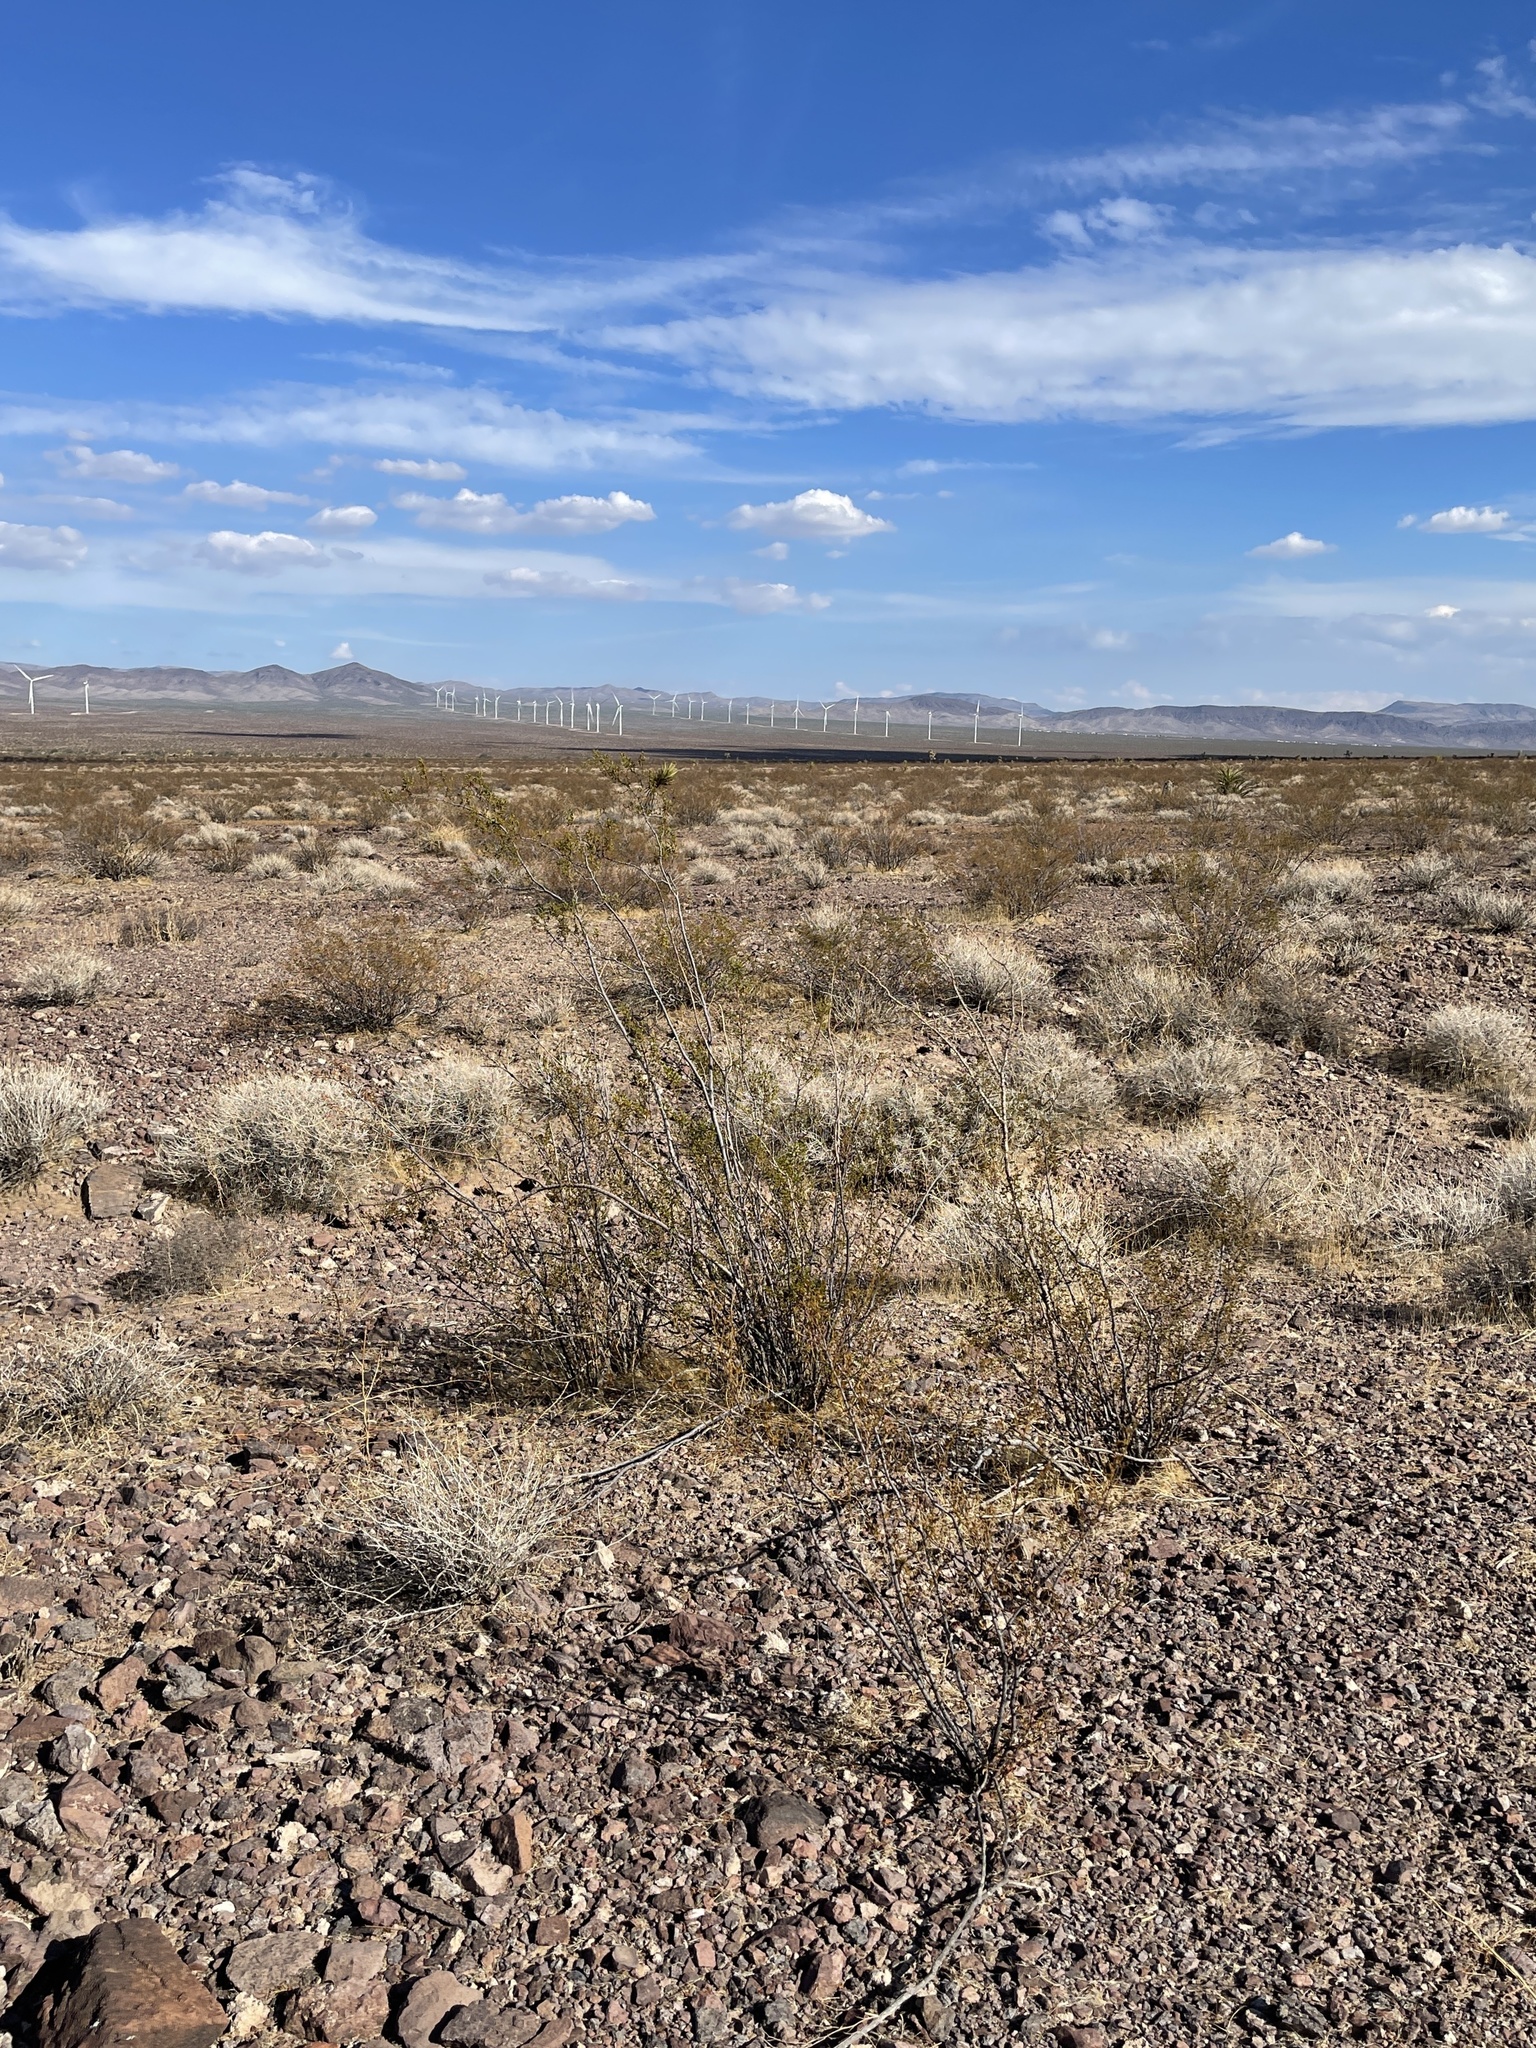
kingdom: Plantae
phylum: Tracheophyta
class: Magnoliopsida
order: Zygophyllales
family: Zygophyllaceae
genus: Larrea
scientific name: Larrea tridentata
